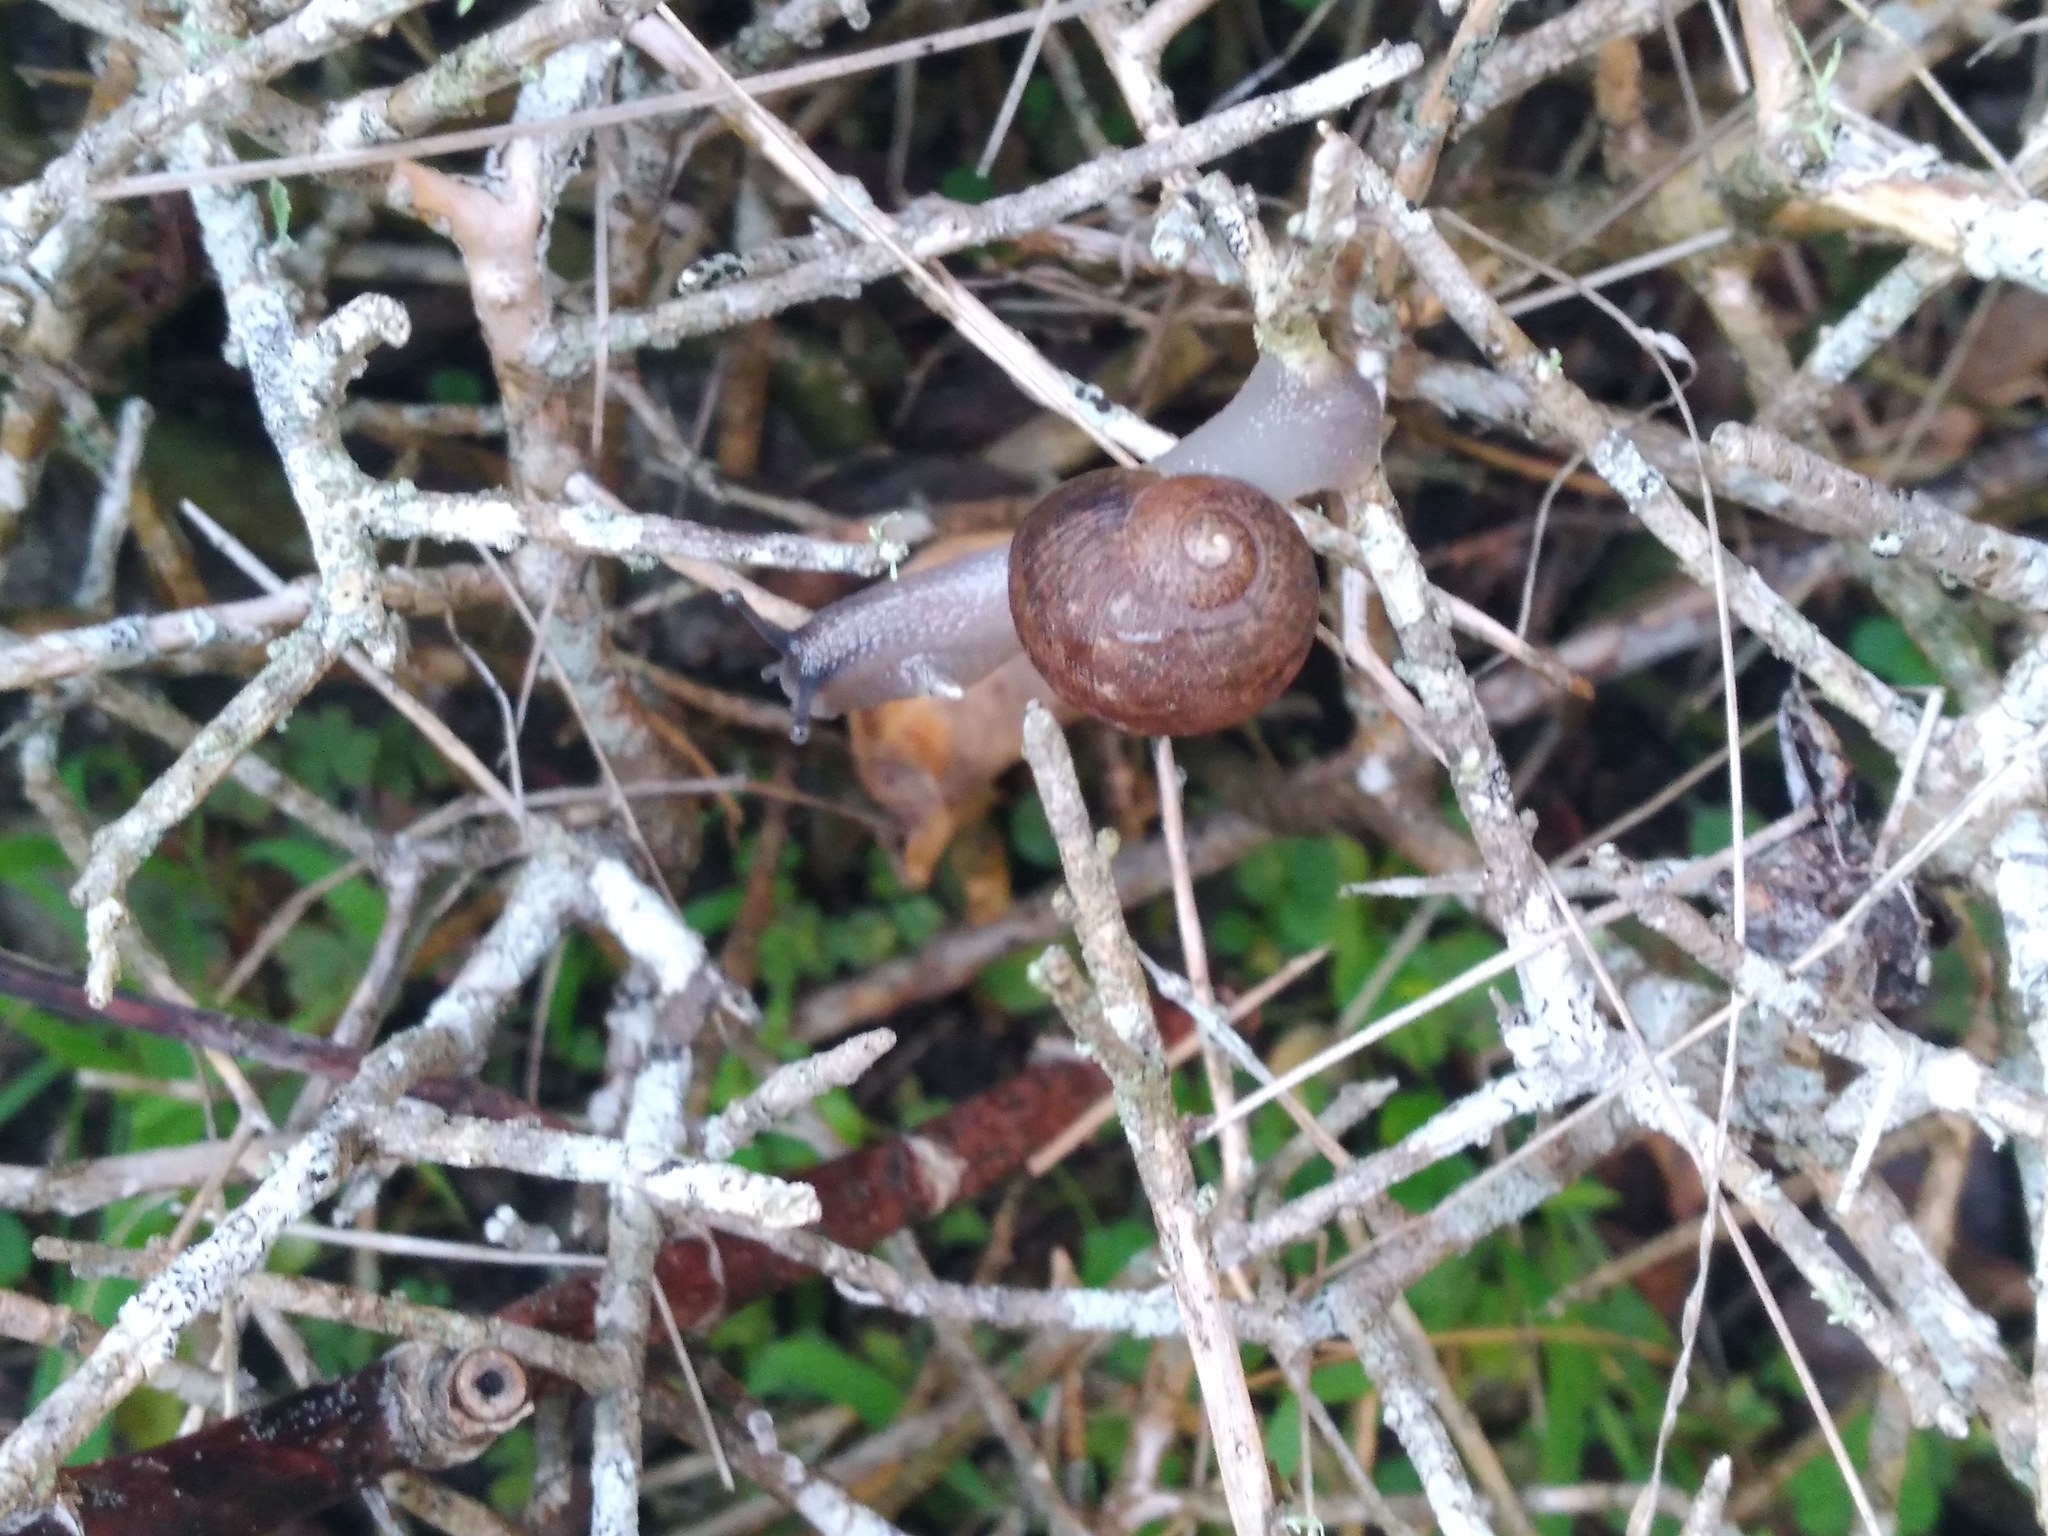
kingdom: Animalia
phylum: Mollusca
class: Gastropoda
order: Stylommatophora
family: Helicidae
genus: Cornu
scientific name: Cornu aspersum
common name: Brown garden snail
